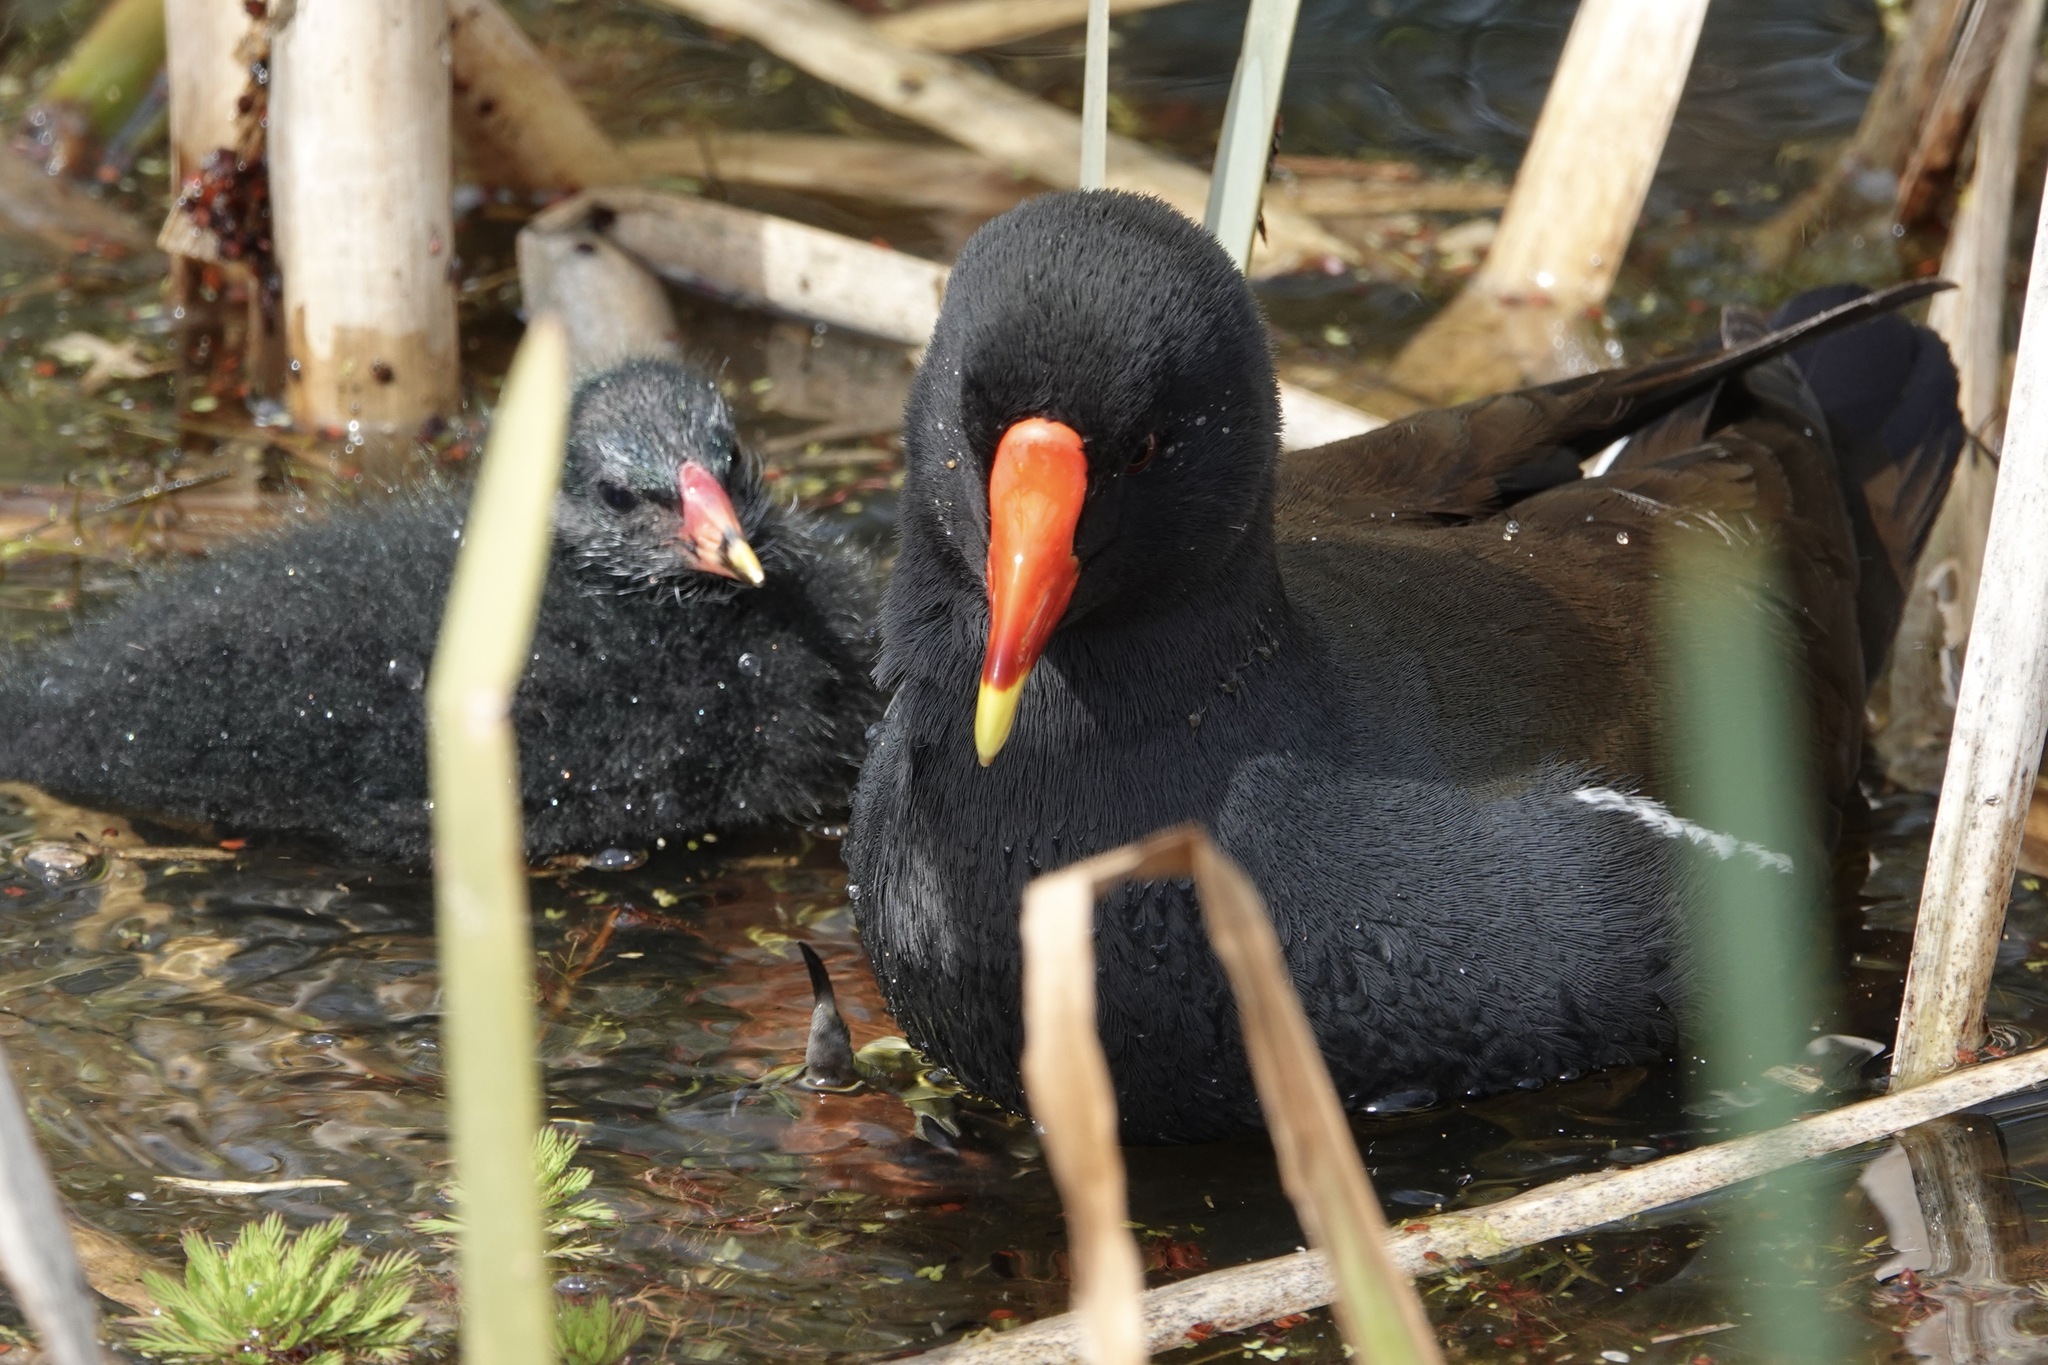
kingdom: Animalia
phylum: Chordata
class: Aves
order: Gruiformes
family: Rallidae
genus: Gallinula
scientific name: Gallinula chloropus
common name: Common moorhen
